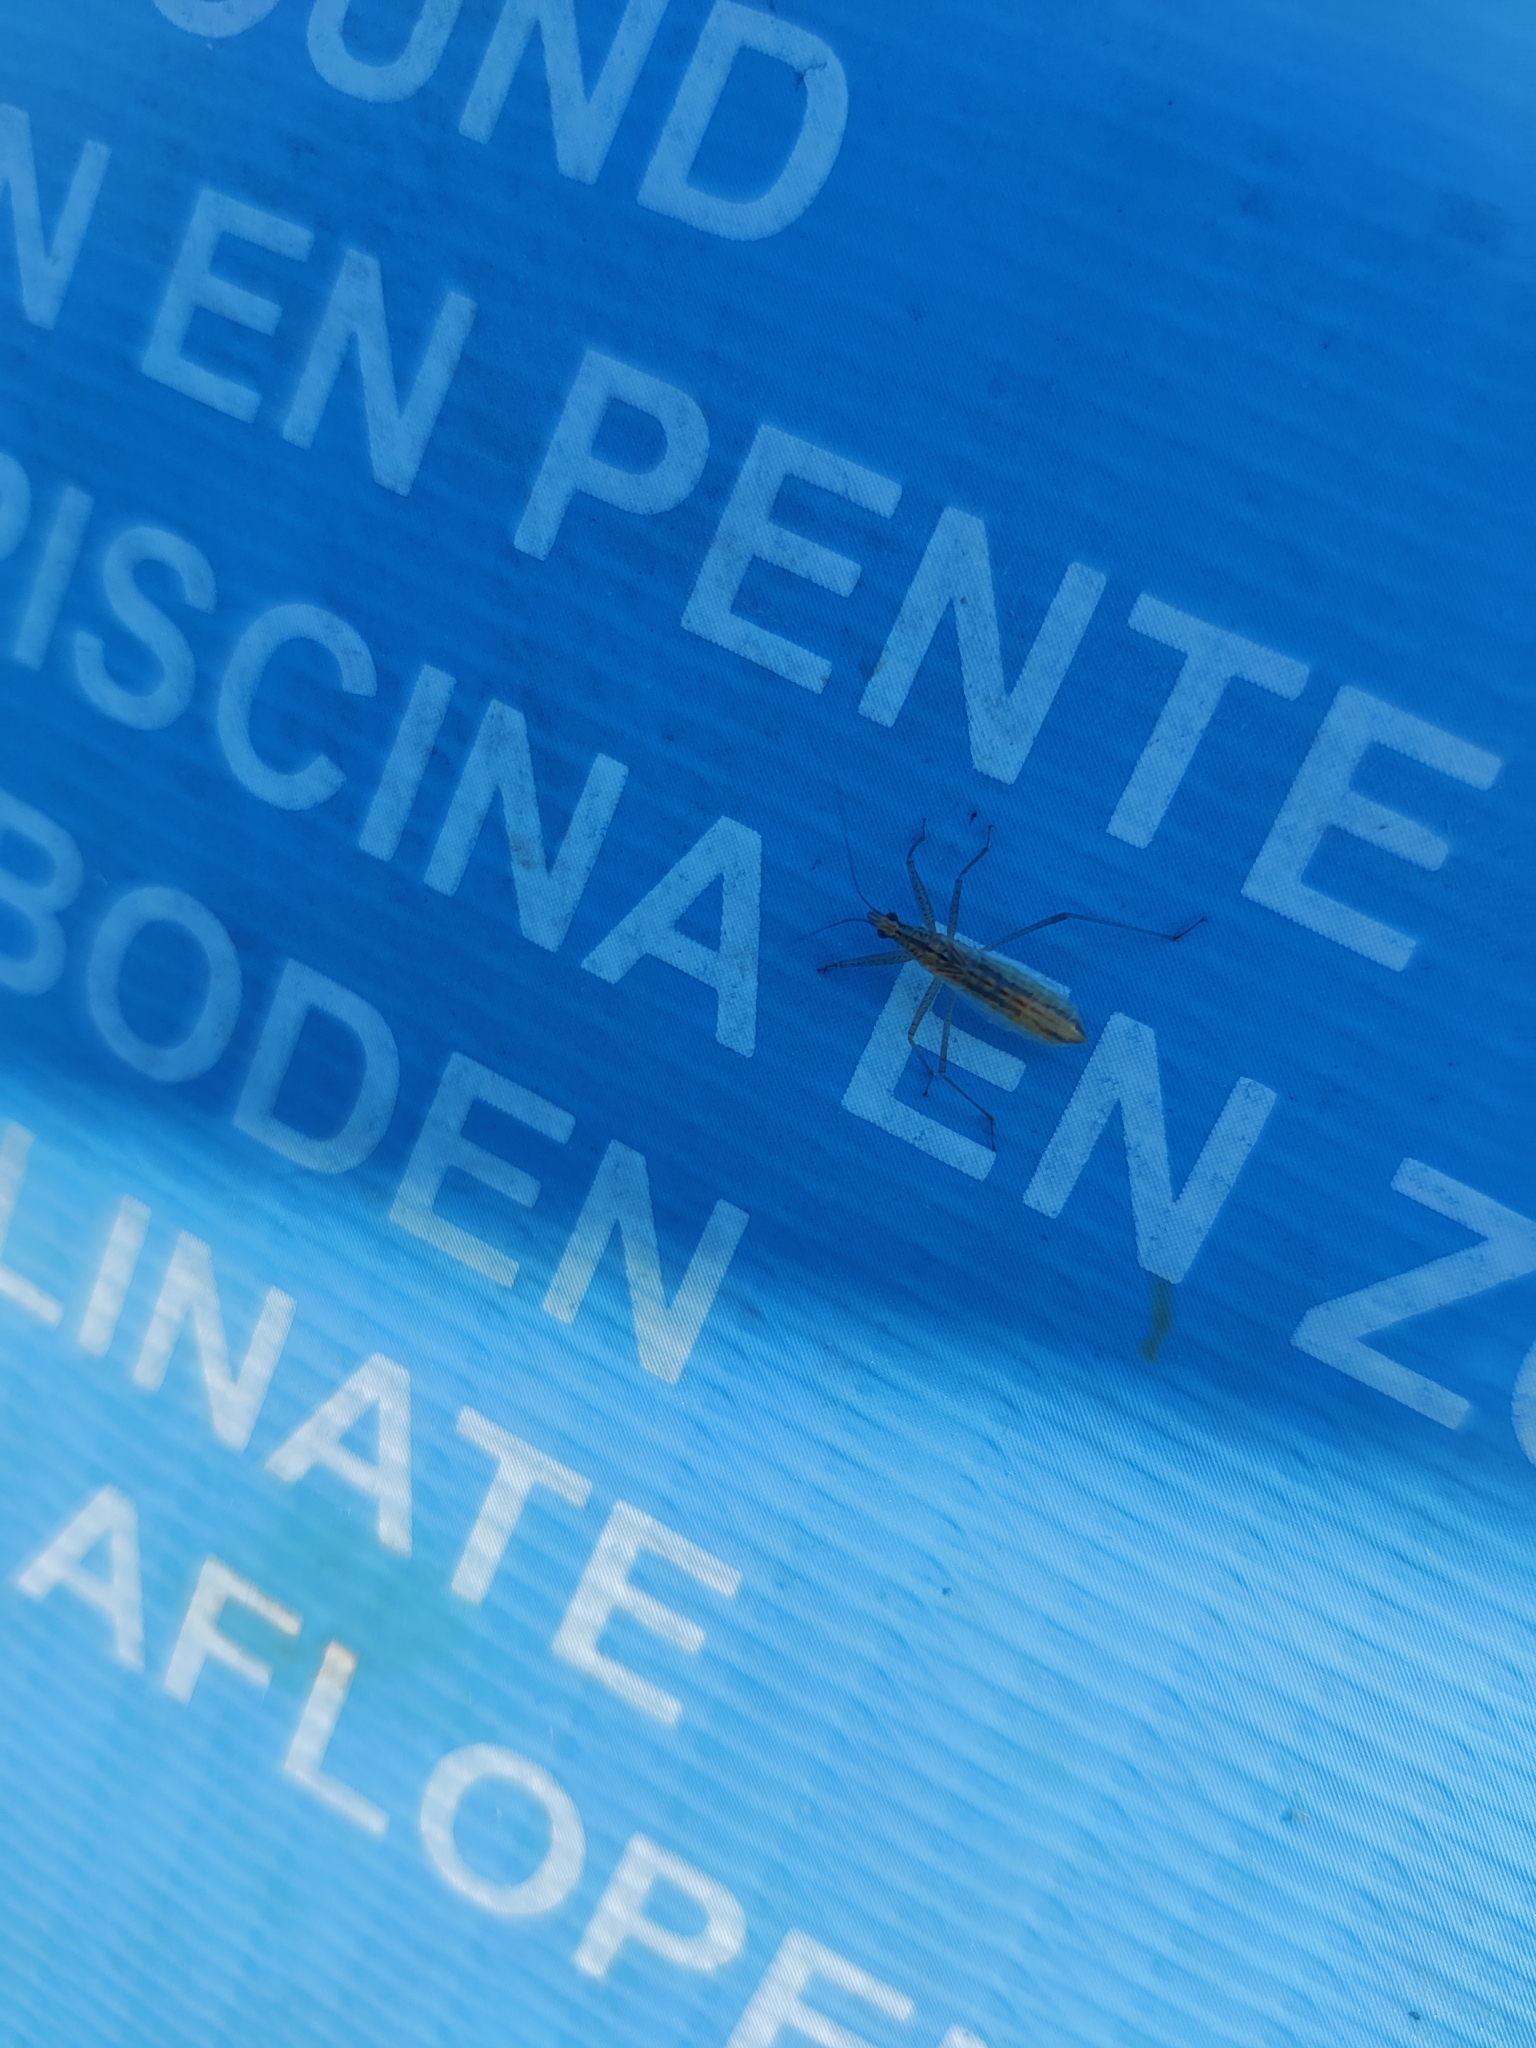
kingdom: Animalia
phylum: Arthropoda
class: Insecta
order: Hemiptera
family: Nabidae
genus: Nabis
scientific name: Nabis limbatus
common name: Marsh damselbug
